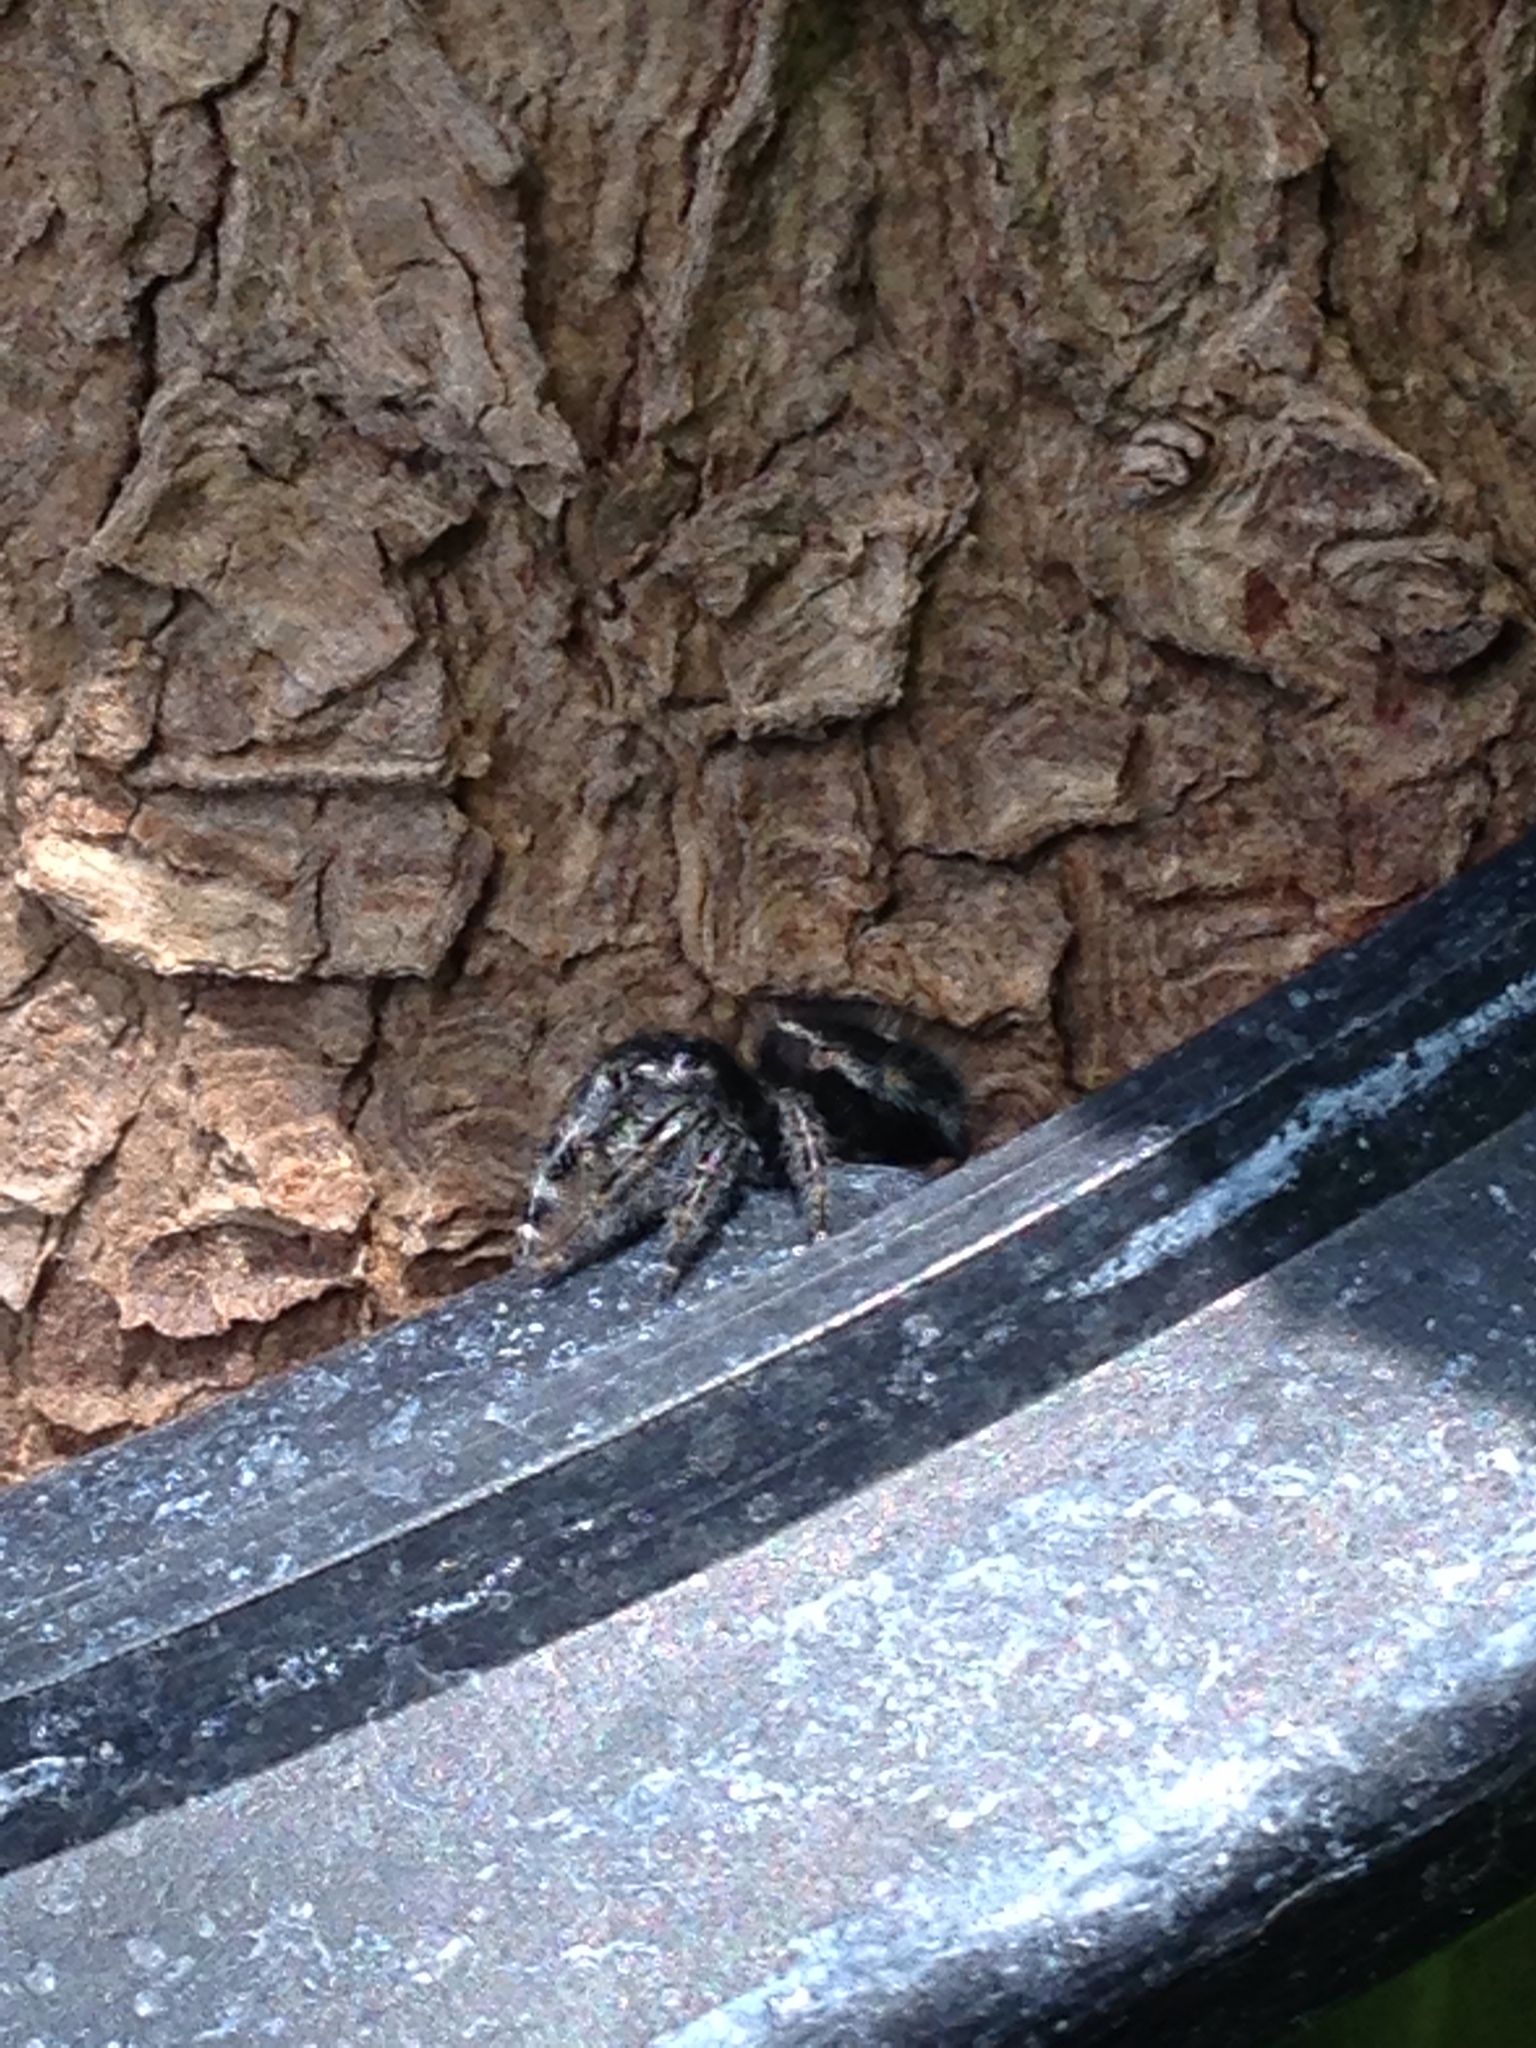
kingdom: Animalia
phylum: Arthropoda
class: Arachnida
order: Araneae
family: Salticidae
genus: Phidippus
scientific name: Phidippus audax
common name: Bold jumper
